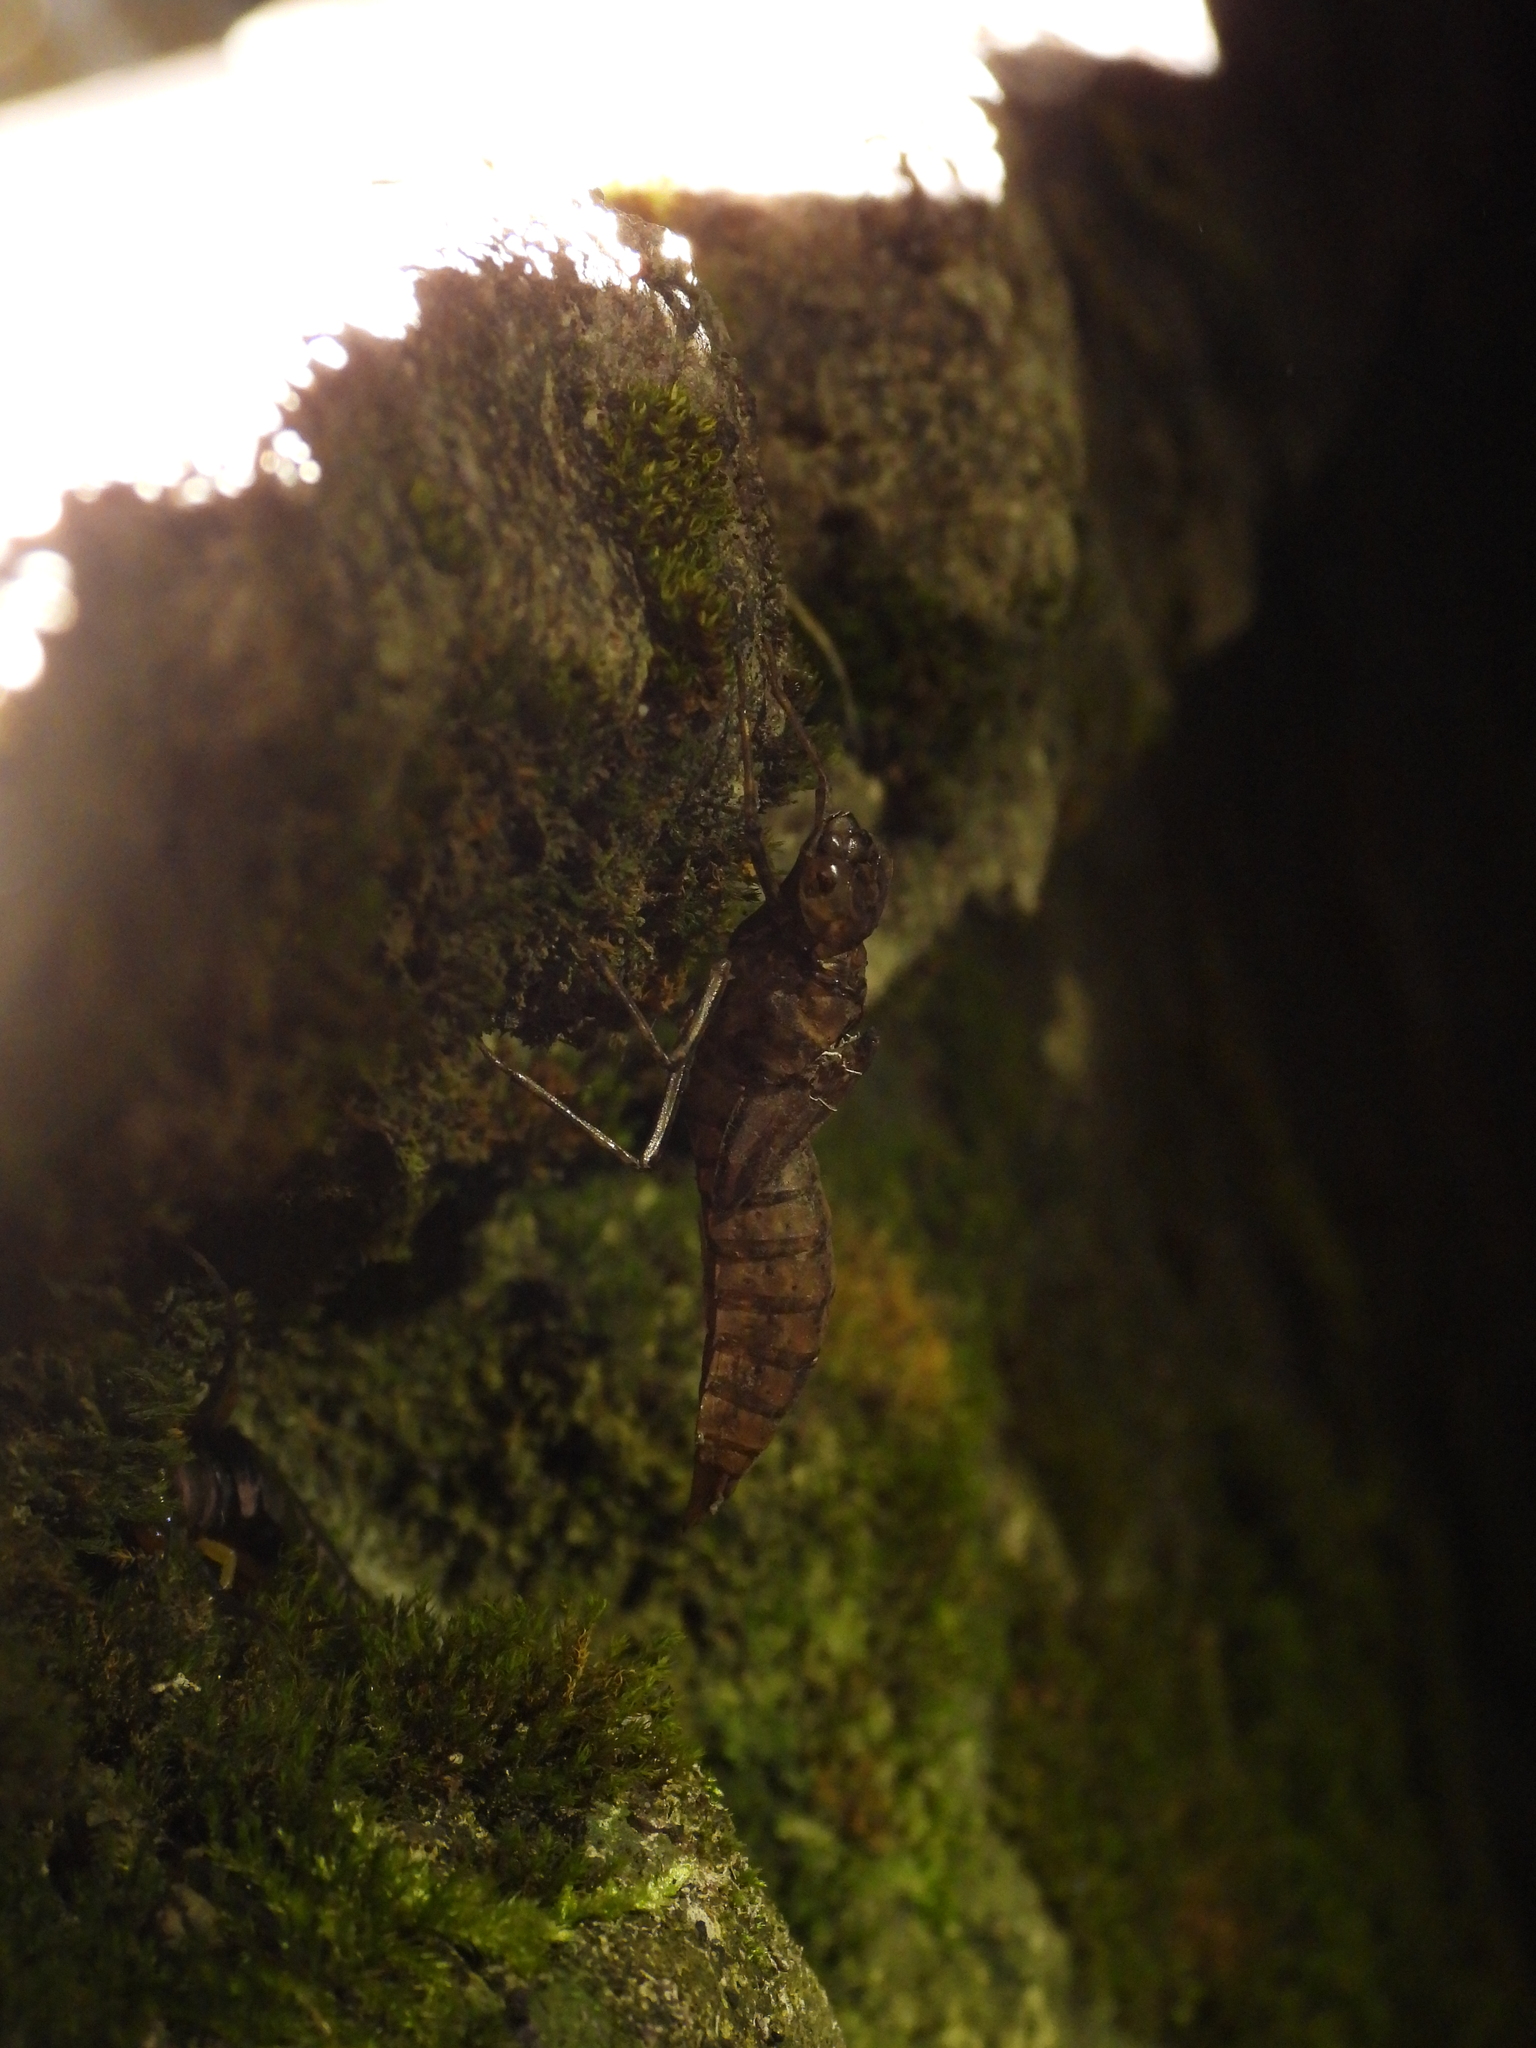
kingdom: Animalia
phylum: Arthropoda
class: Insecta
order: Odonata
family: Aeshnidae
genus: Aeshna
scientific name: Aeshna petalura
